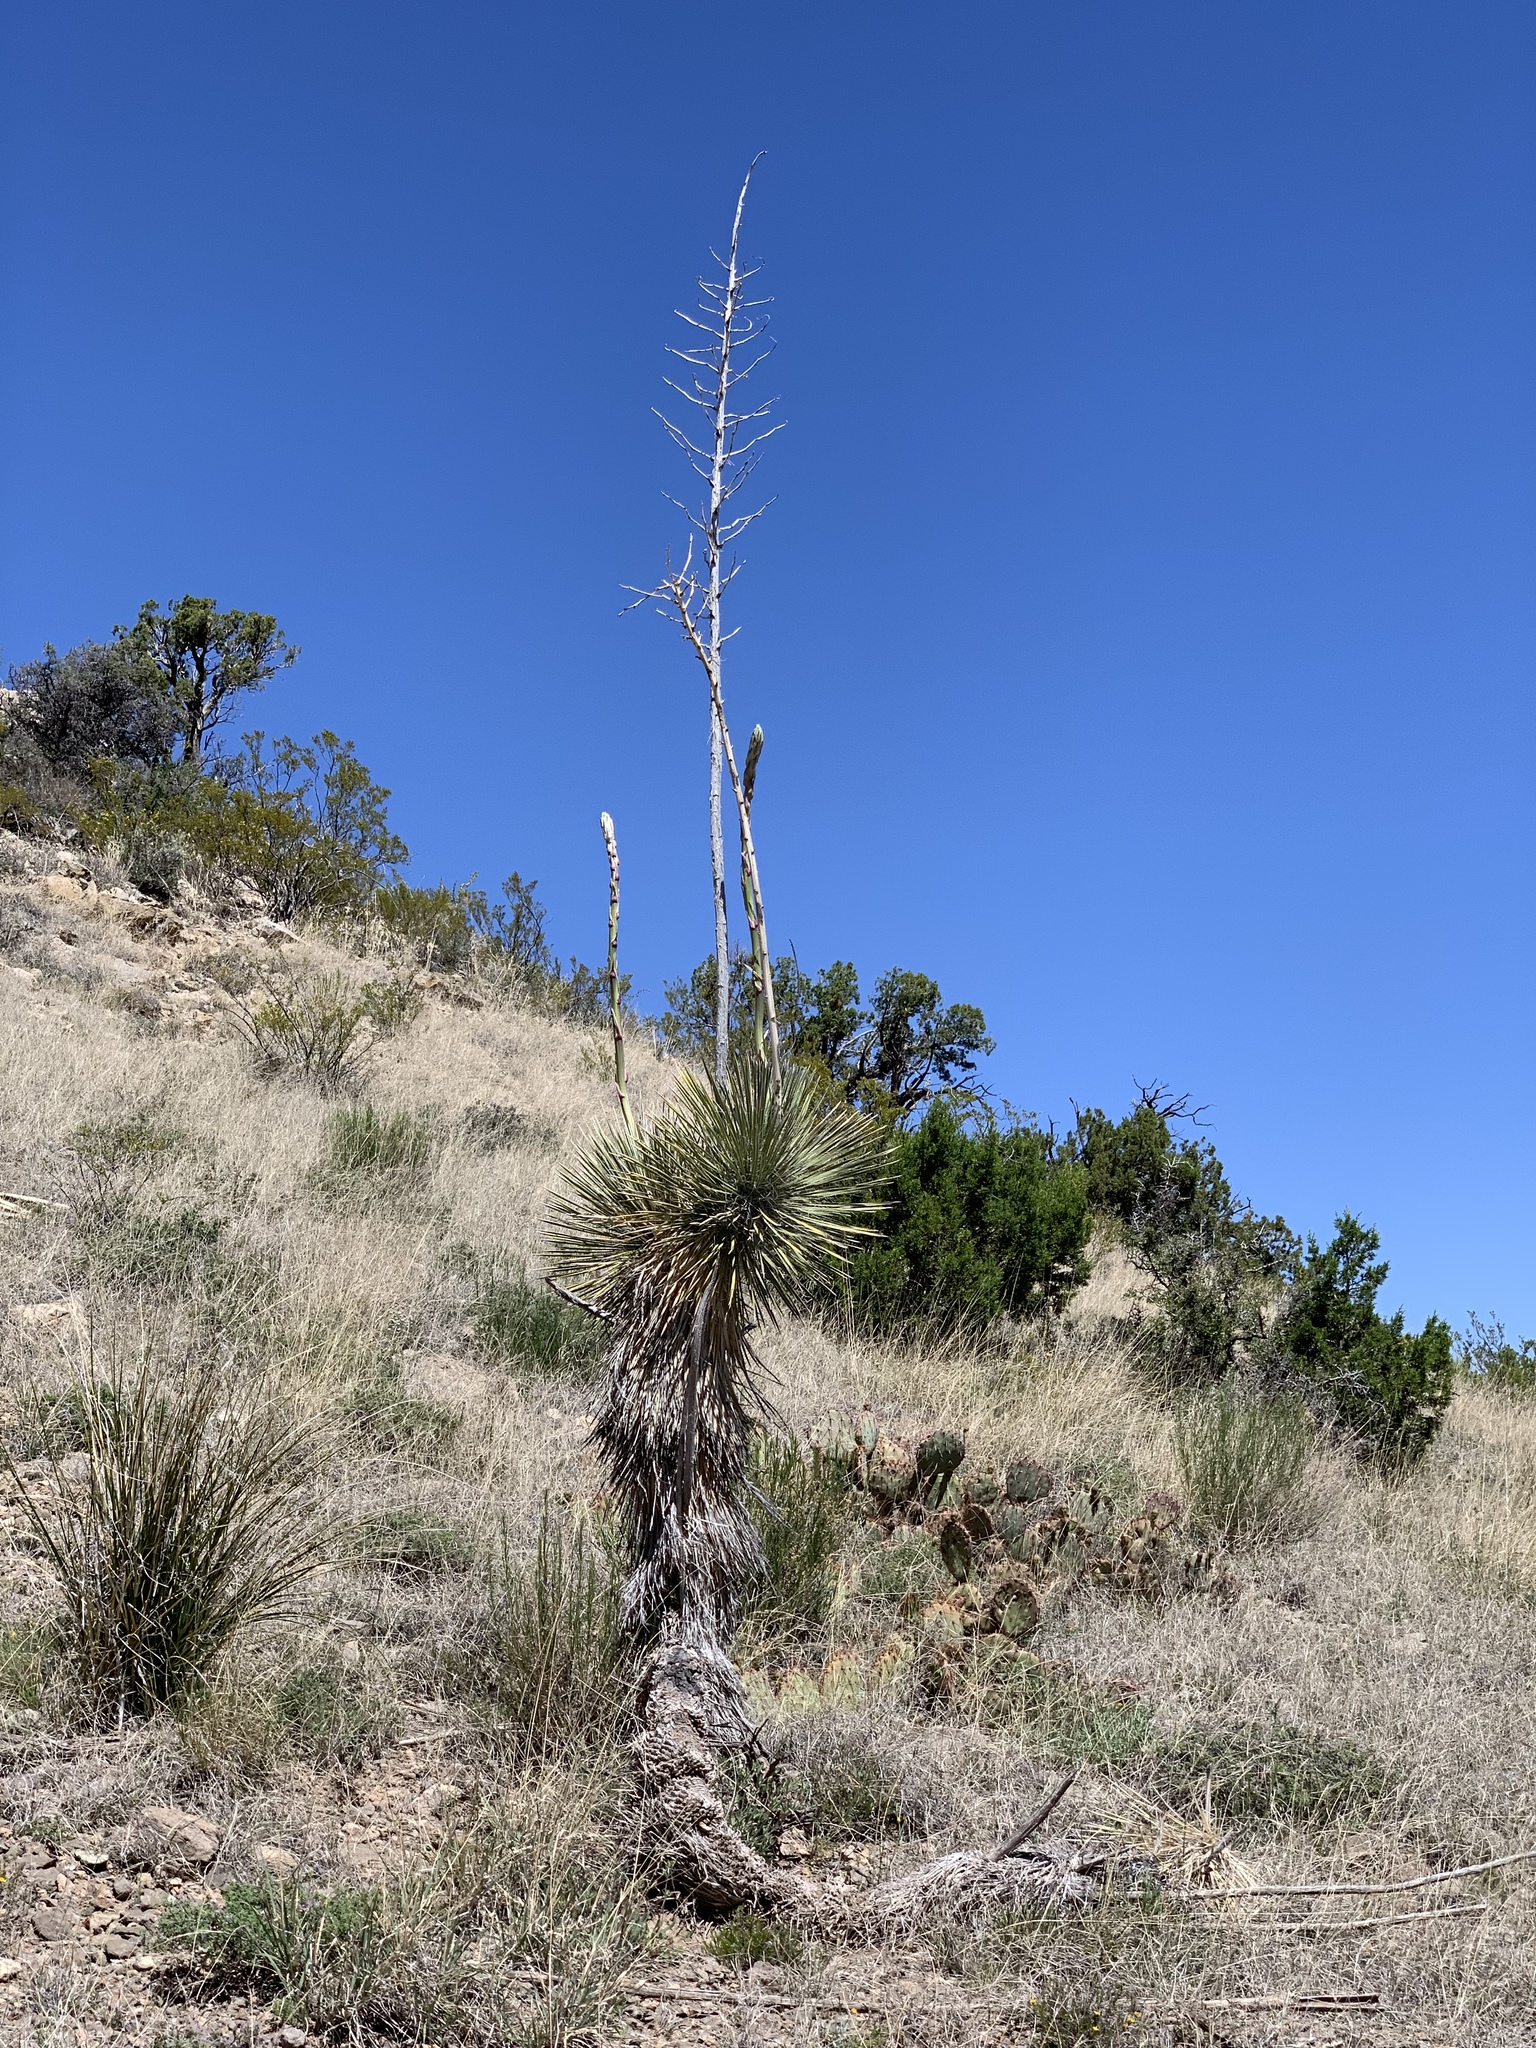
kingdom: Plantae
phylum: Tracheophyta
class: Liliopsida
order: Asparagales
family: Asparagaceae
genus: Yucca
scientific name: Yucca elata
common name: Palmella
